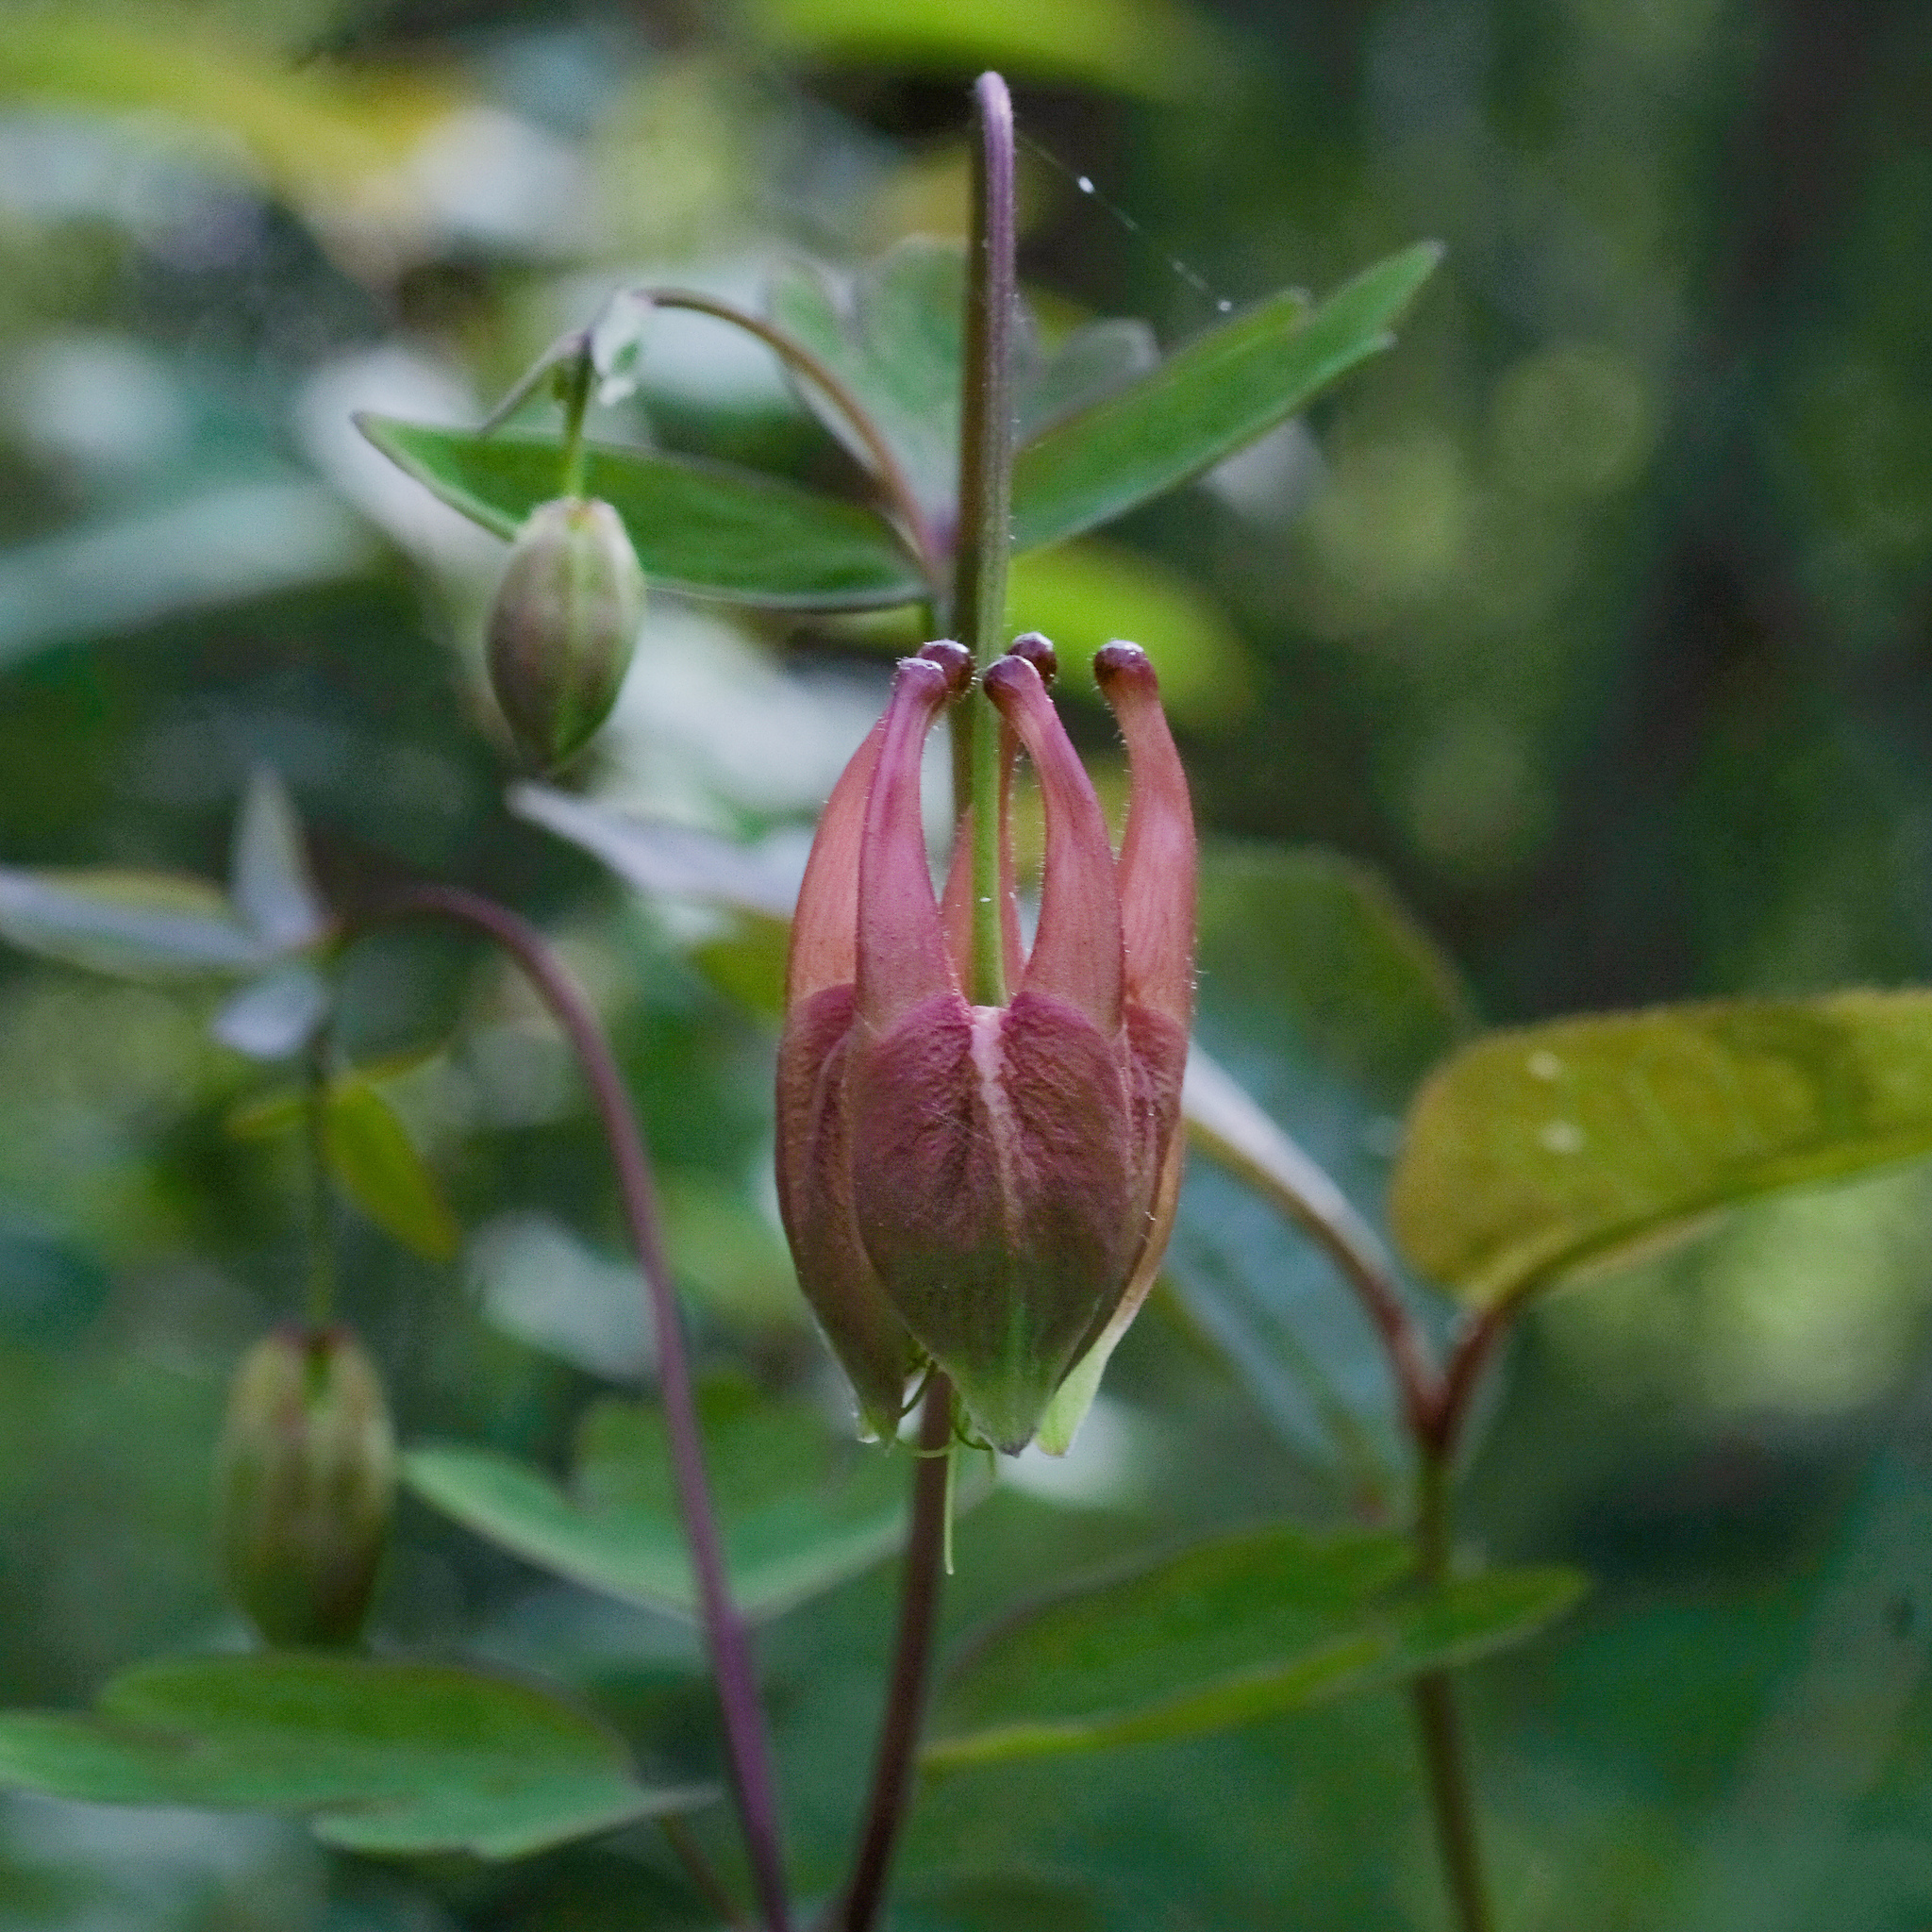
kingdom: Plantae
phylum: Tracheophyta
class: Magnoliopsida
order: Ranunculales
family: Ranunculaceae
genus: Aquilegia
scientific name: Aquilegia canadensis
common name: American columbine
